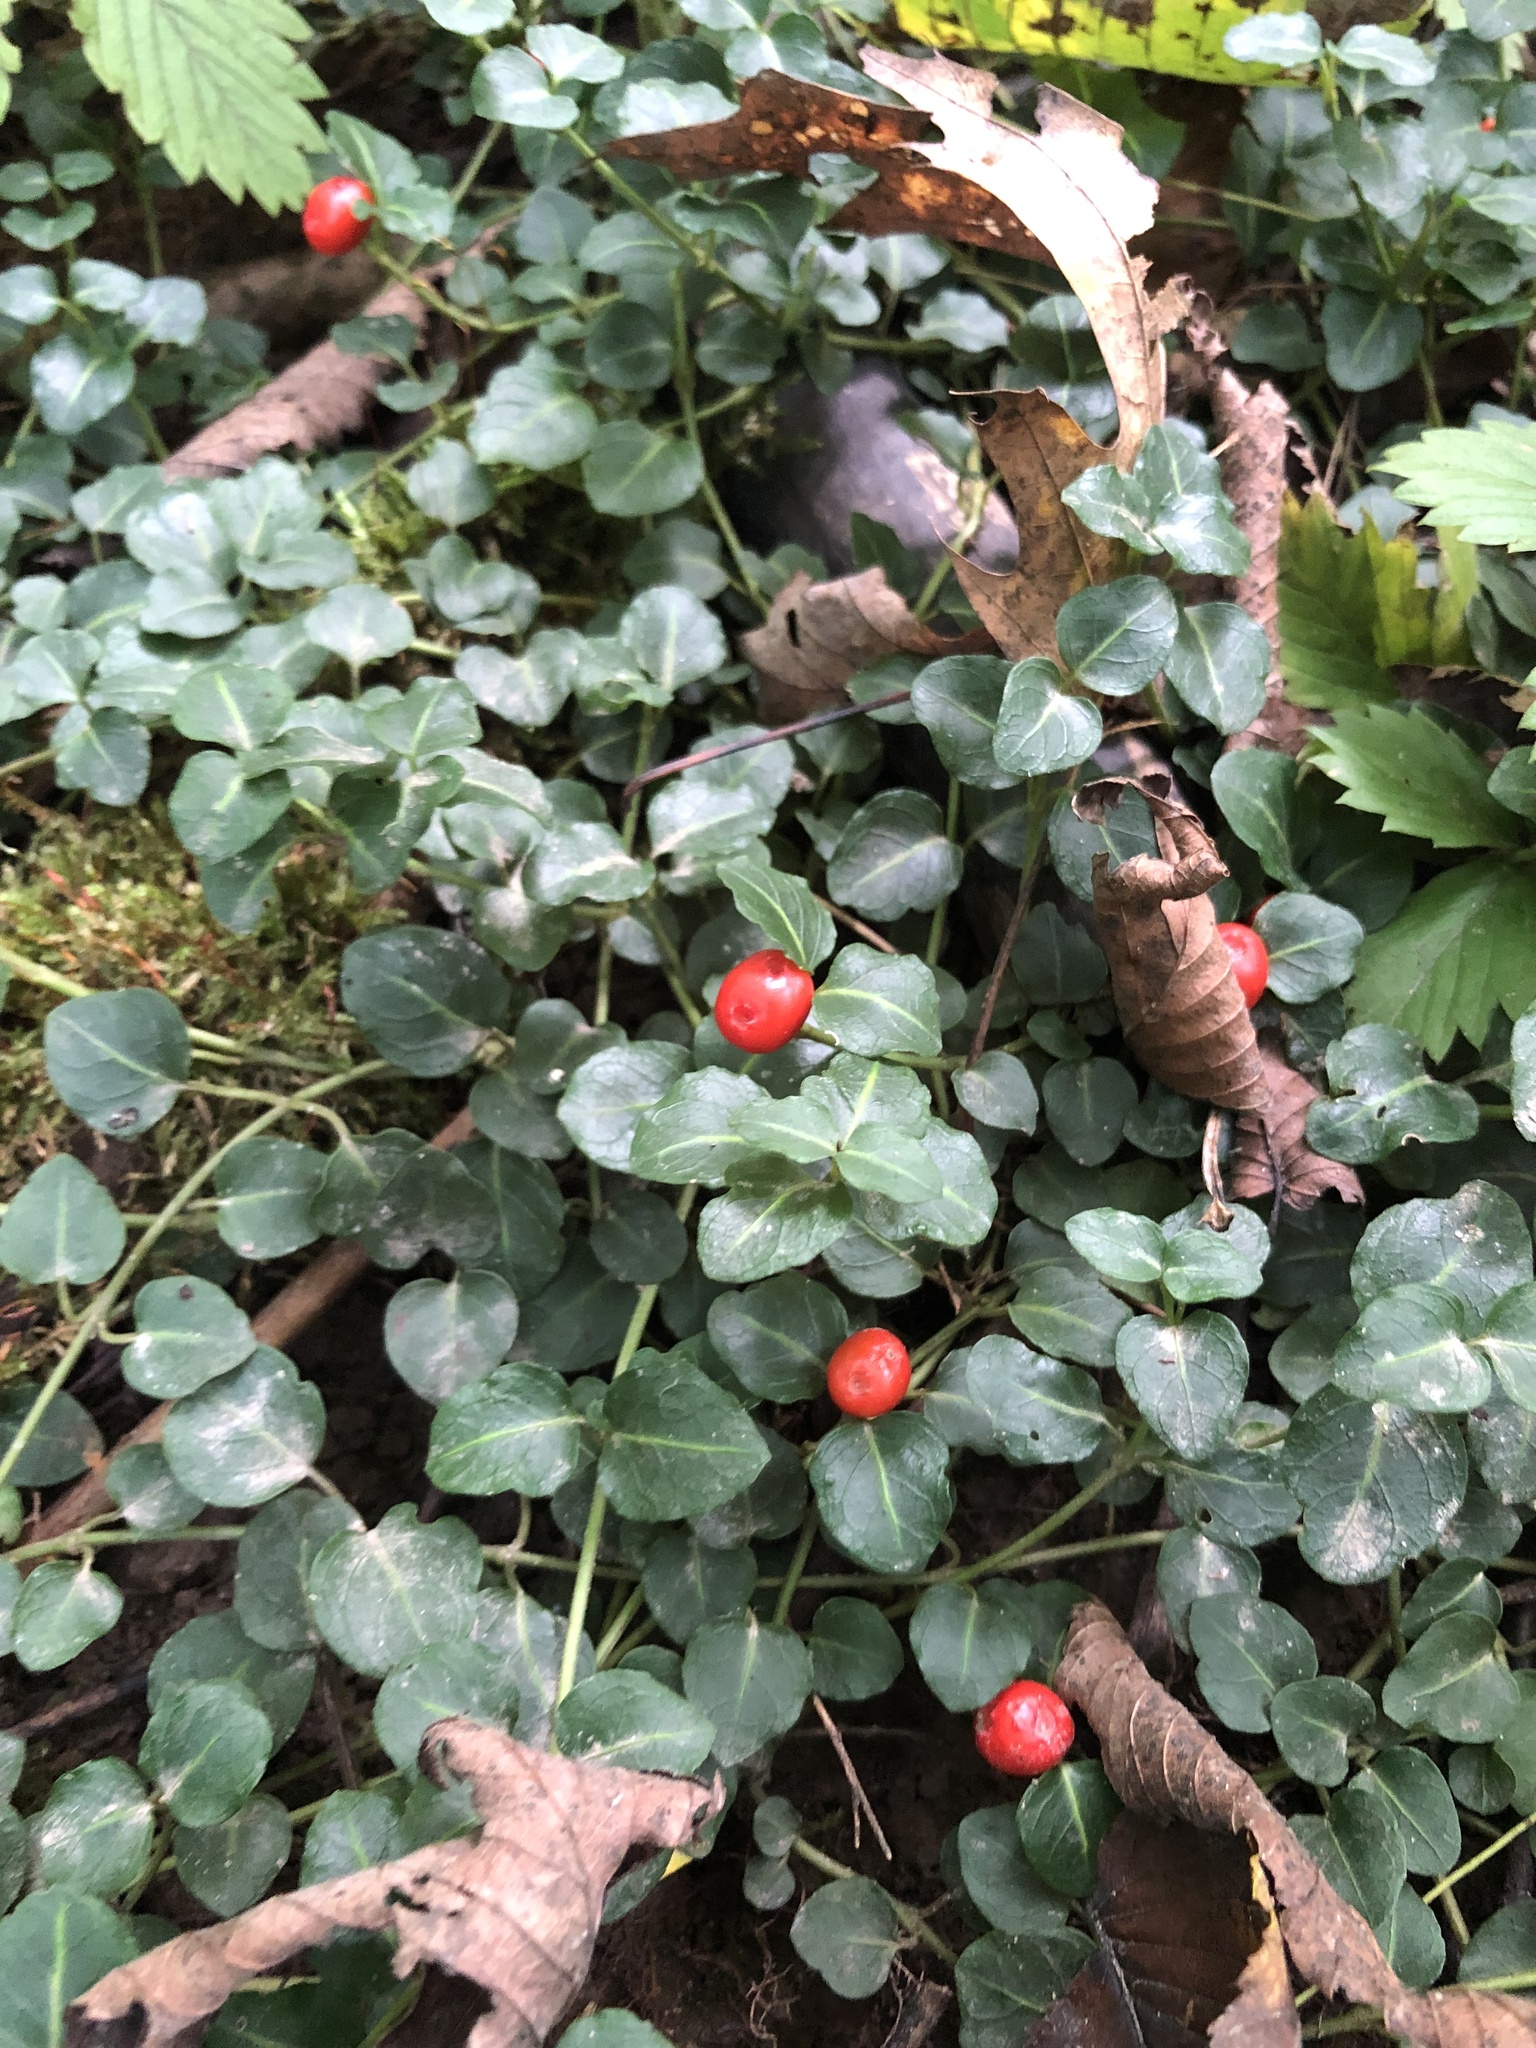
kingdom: Plantae
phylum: Tracheophyta
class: Magnoliopsida
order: Gentianales
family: Rubiaceae
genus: Mitchella
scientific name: Mitchella repens
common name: Partridge-berry
